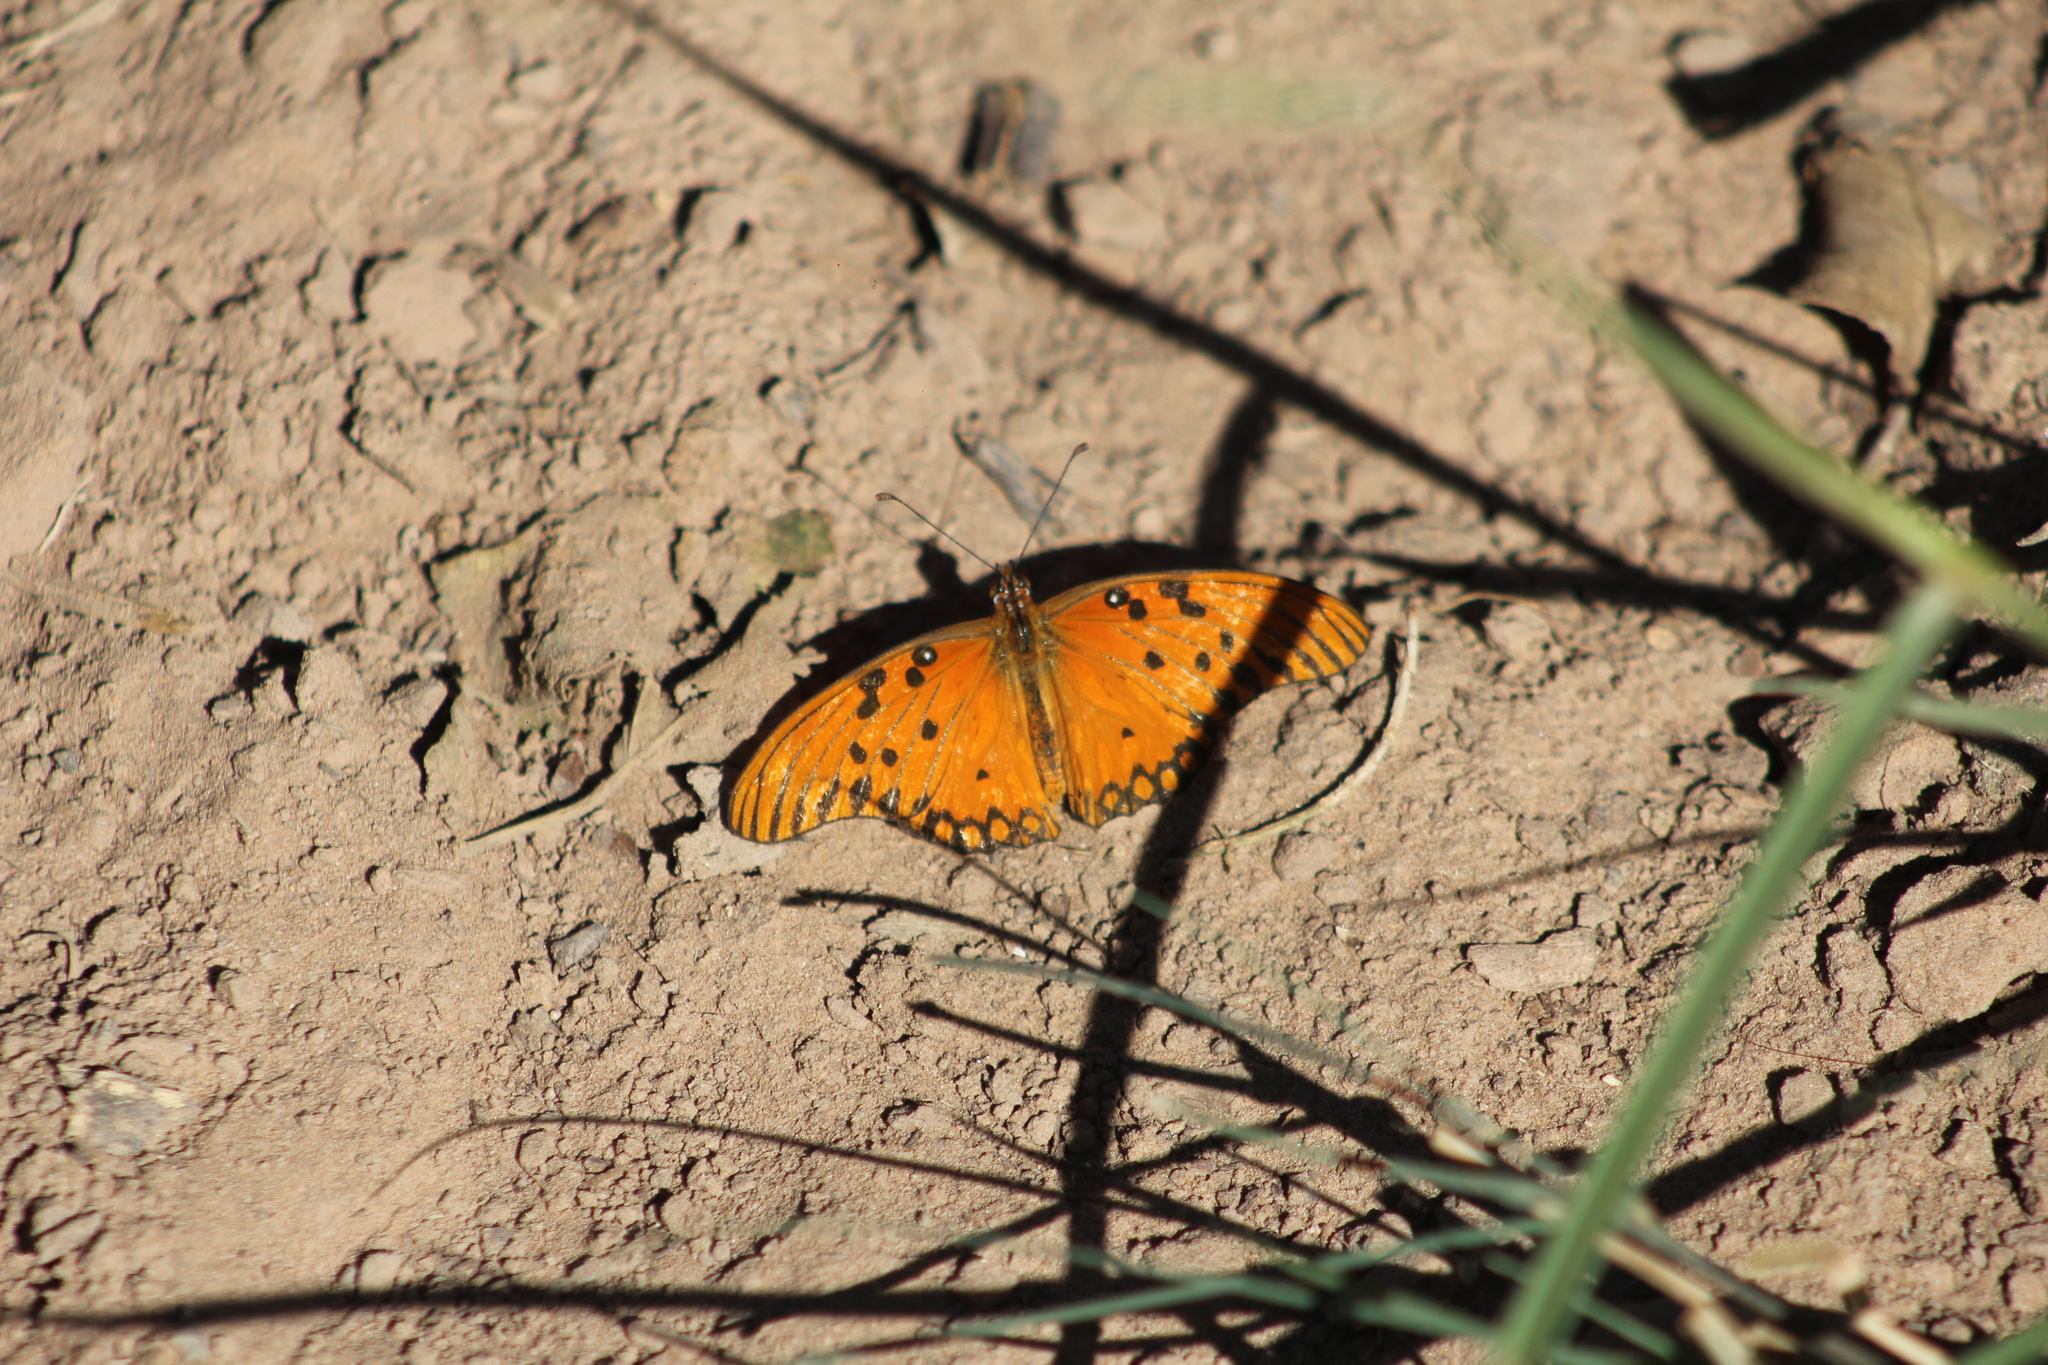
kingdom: Animalia
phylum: Arthropoda
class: Insecta
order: Lepidoptera
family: Nymphalidae
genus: Dione
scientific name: Dione vanillae
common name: Gulf fritillary
